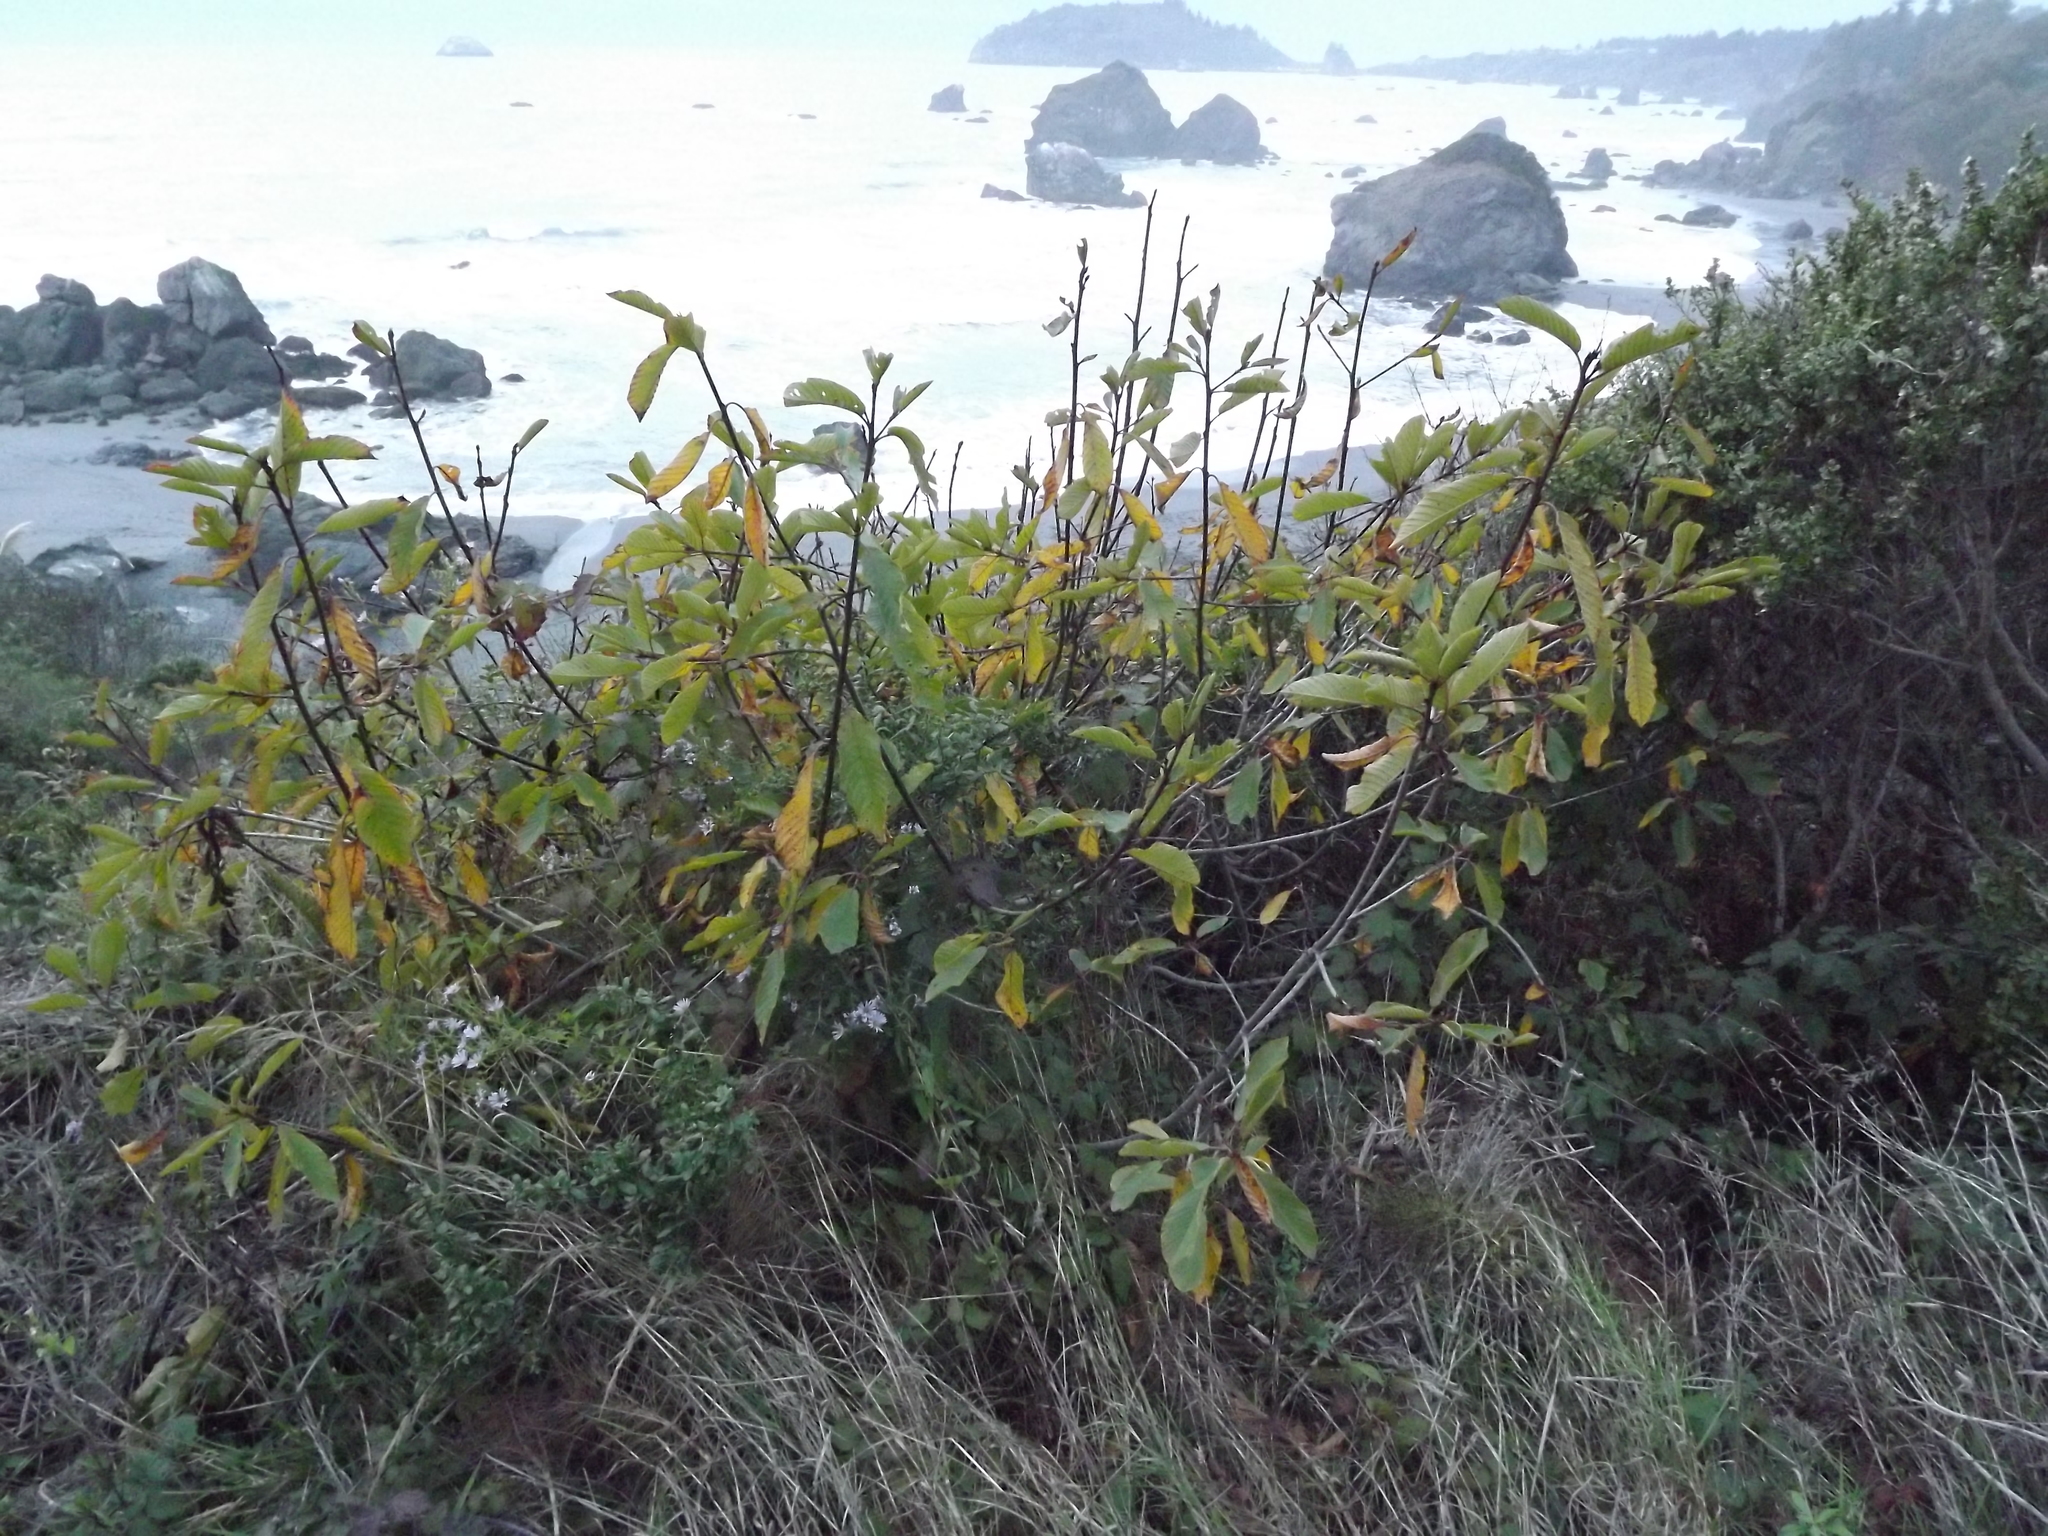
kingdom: Plantae
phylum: Tracheophyta
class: Magnoliopsida
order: Rosales
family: Rhamnaceae
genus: Frangula
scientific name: Frangula purshiana
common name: Cascara buckthorn
